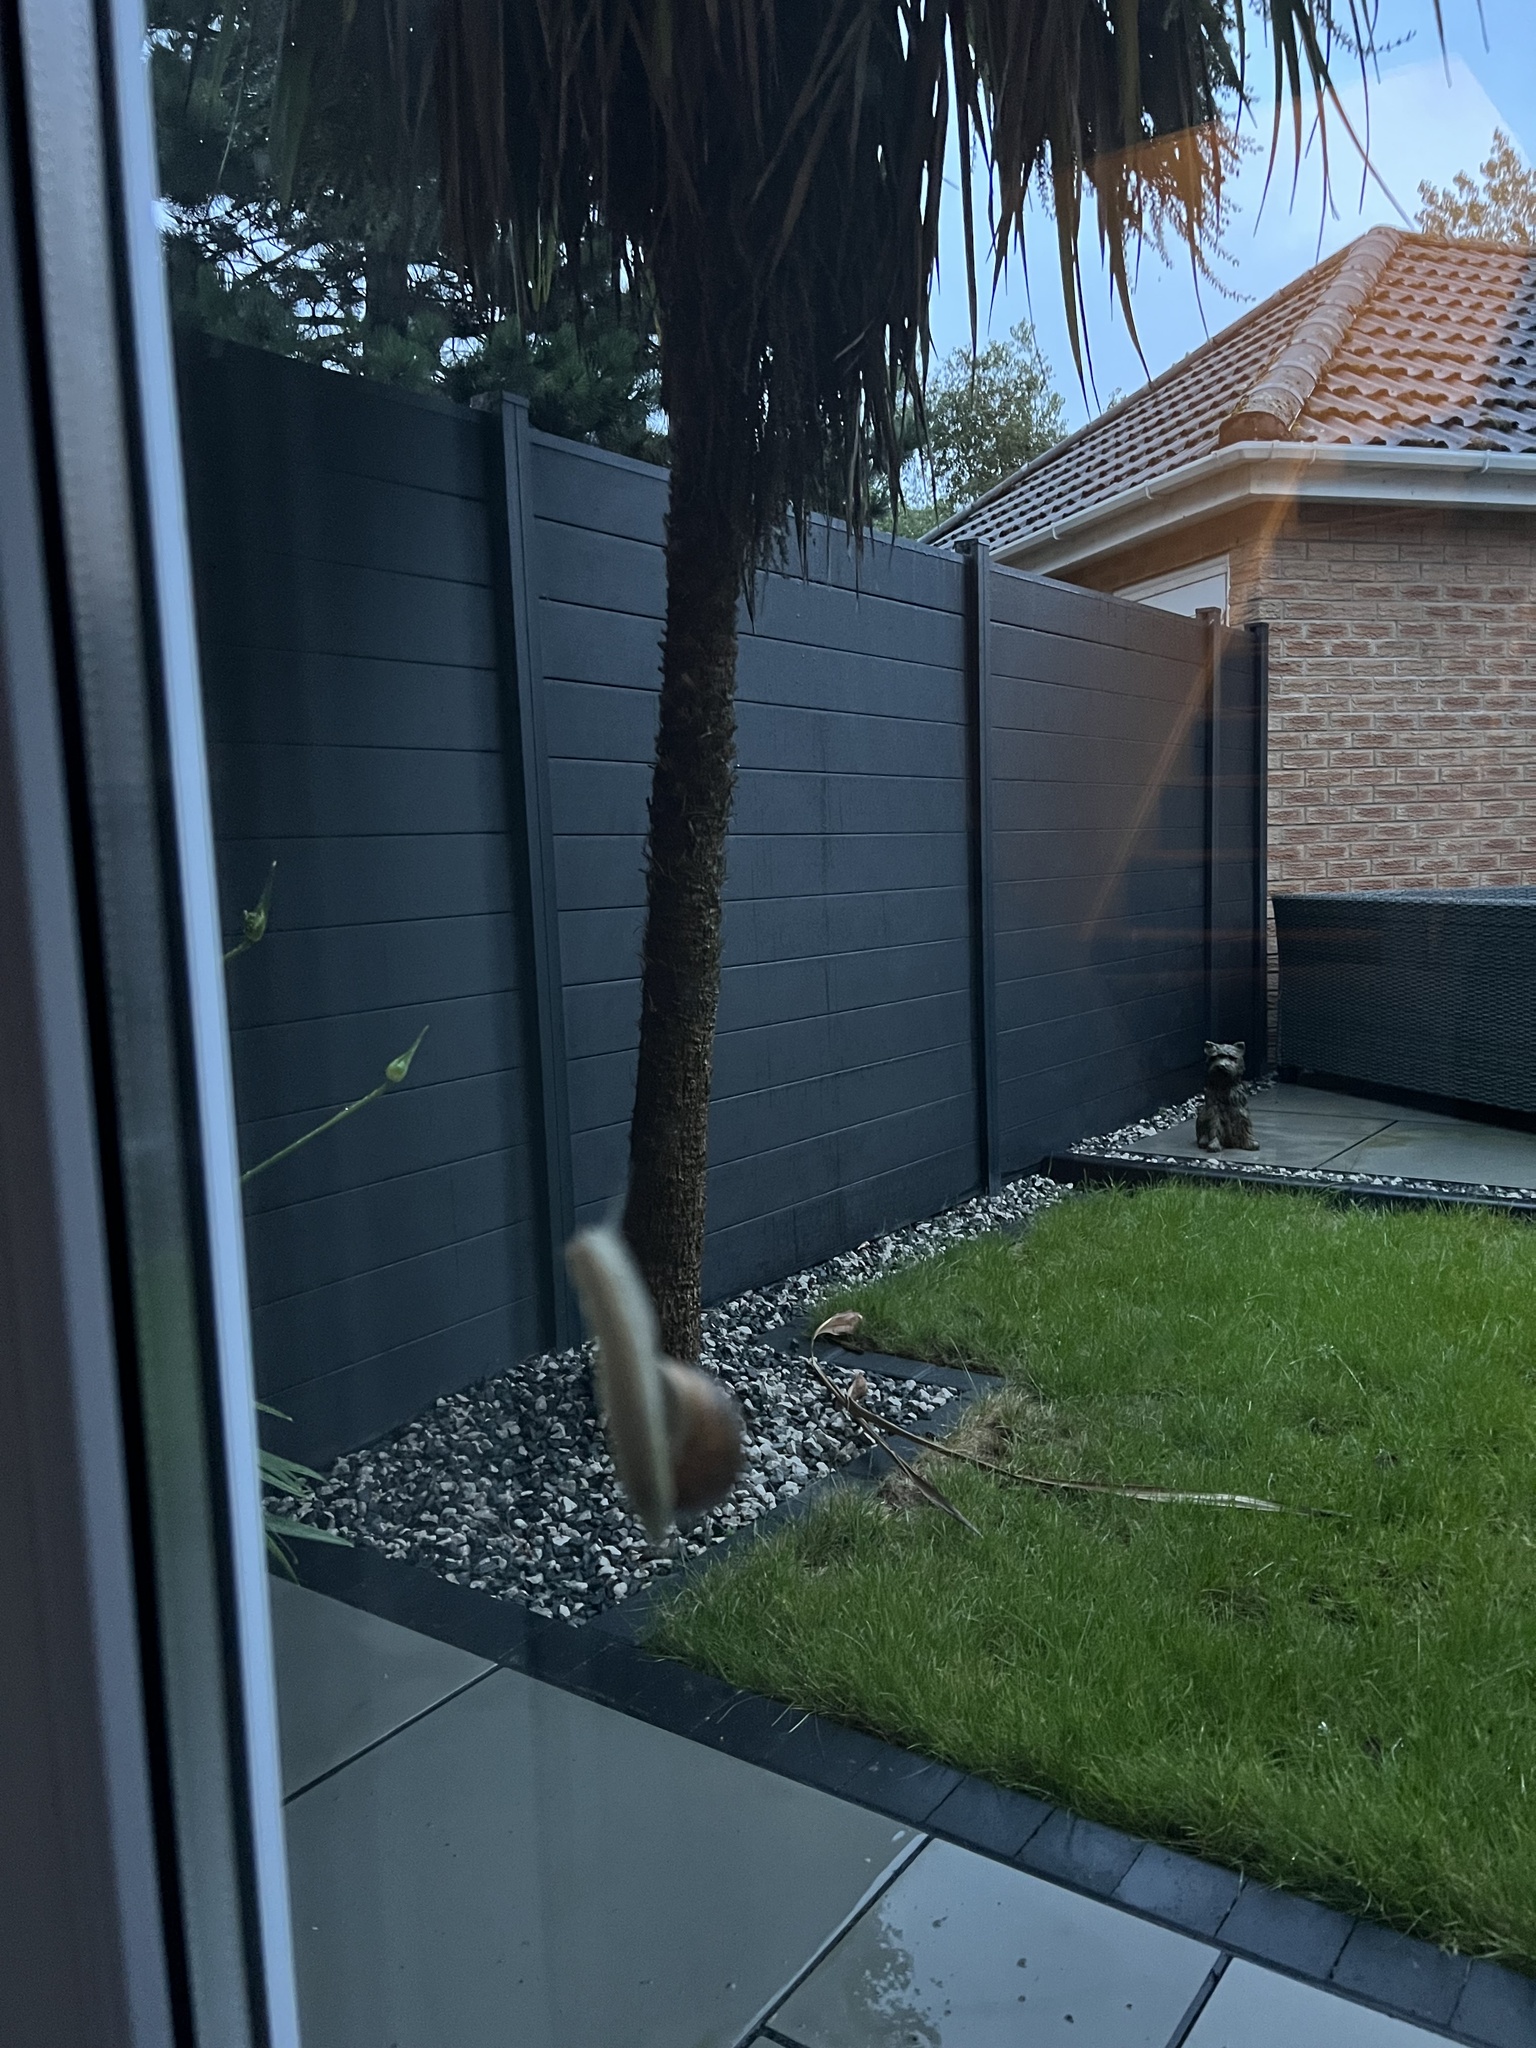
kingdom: Animalia
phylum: Mollusca
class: Gastropoda
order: Stylommatophora
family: Helicidae
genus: Cornu
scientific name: Cornu aspersum
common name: Brown garden snail
